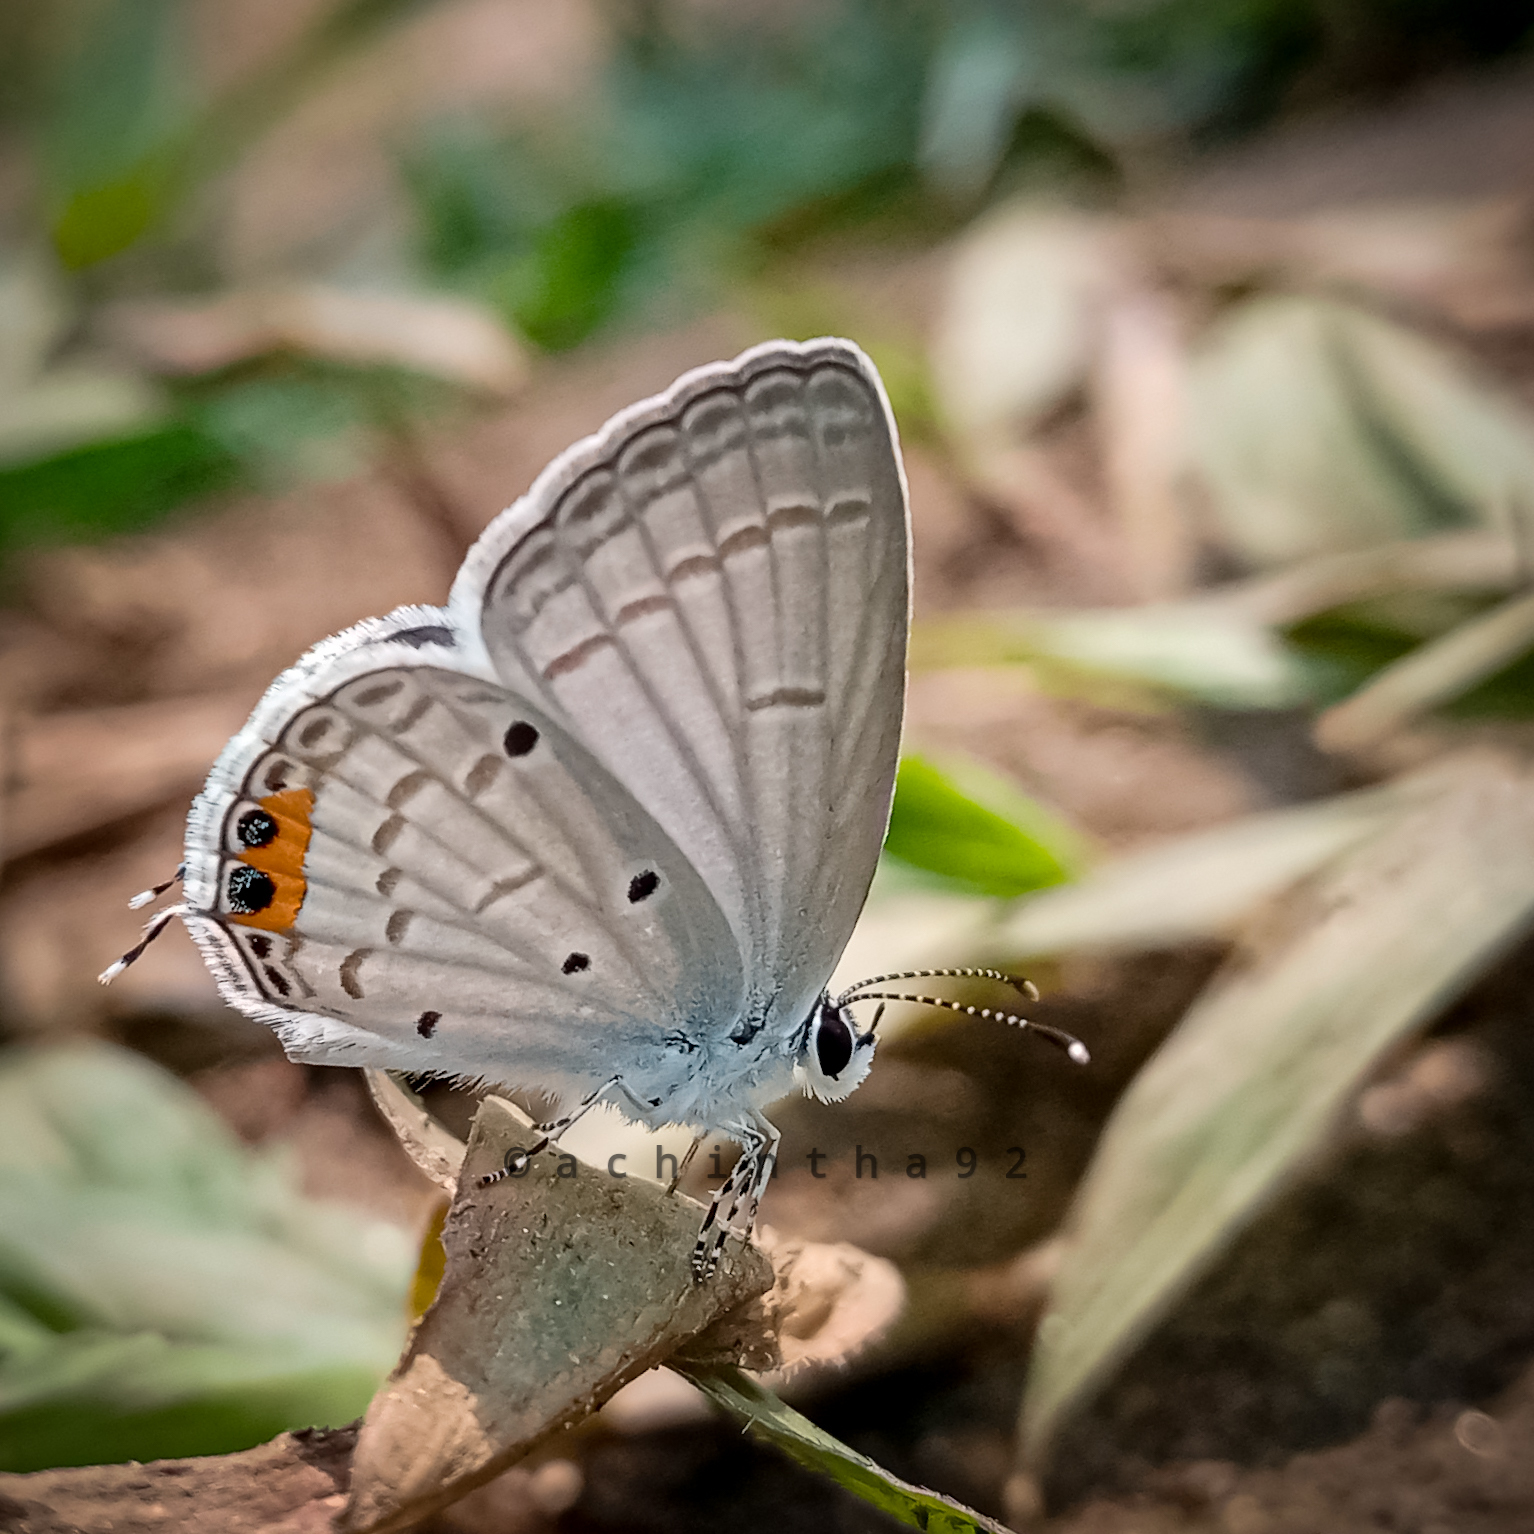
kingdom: Animalia
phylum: Arthropoda
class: Insecta
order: Lepidoptera
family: Lycaenidae
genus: Everes
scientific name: Everes lacturnus
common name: Orange-tipped pea-blue
